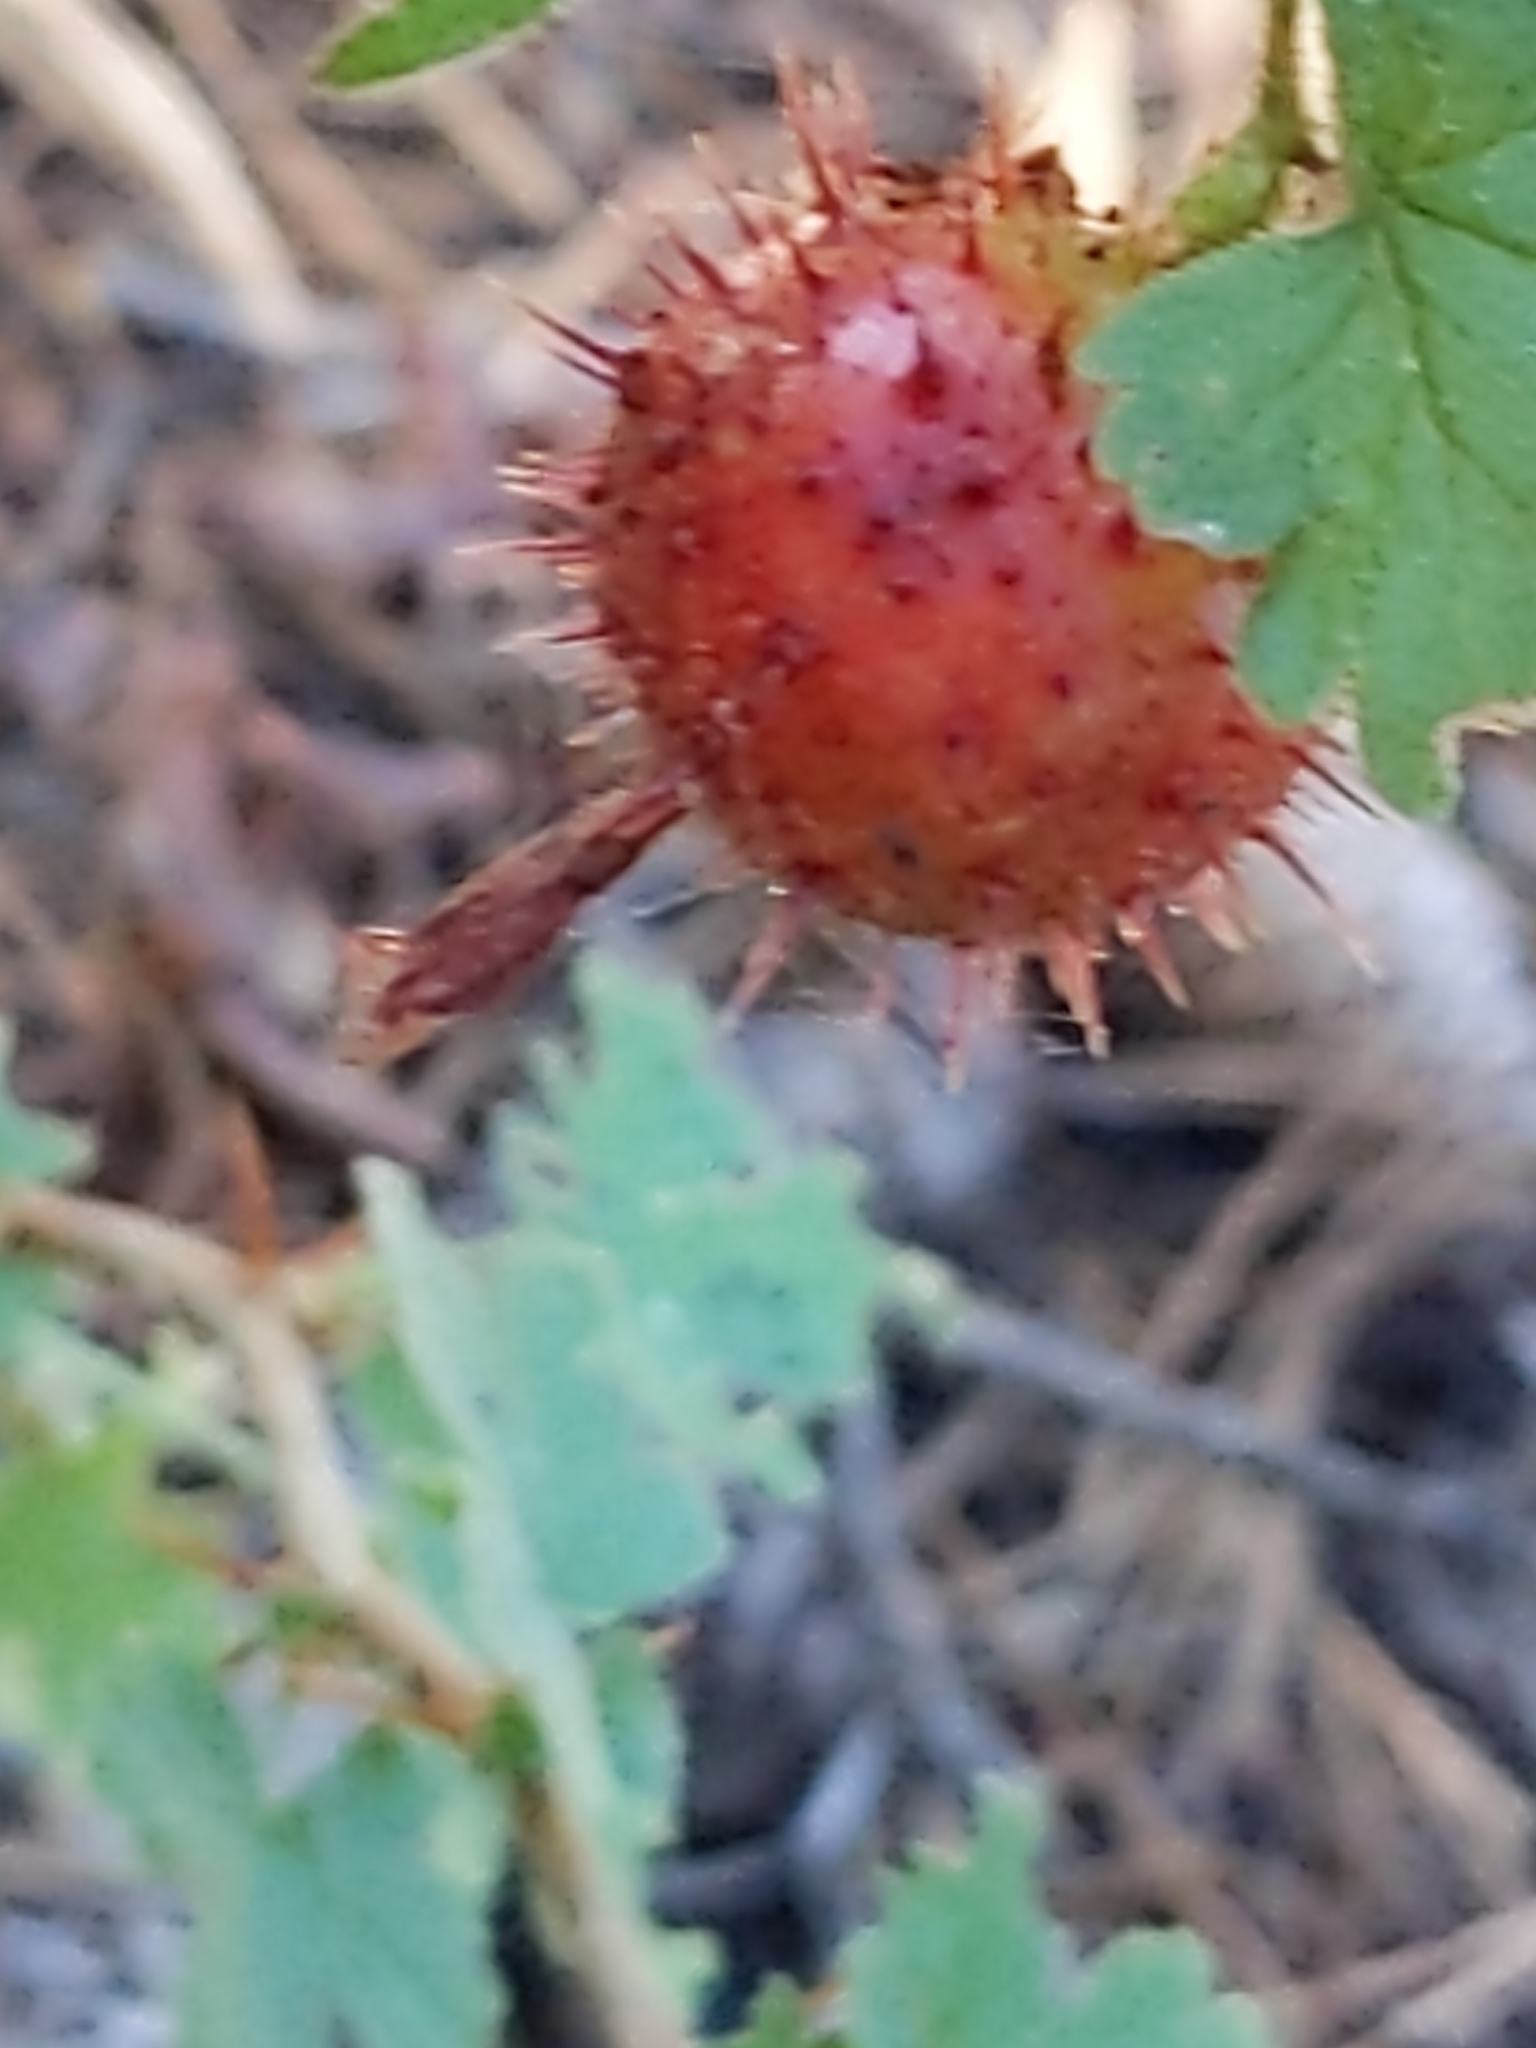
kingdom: Plantae
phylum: Tracheophyta
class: Magnoliopsida
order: Saxifragales
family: Grossulariaceae
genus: Ribes
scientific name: Ribes roezlii
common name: Sierra gooseberry
